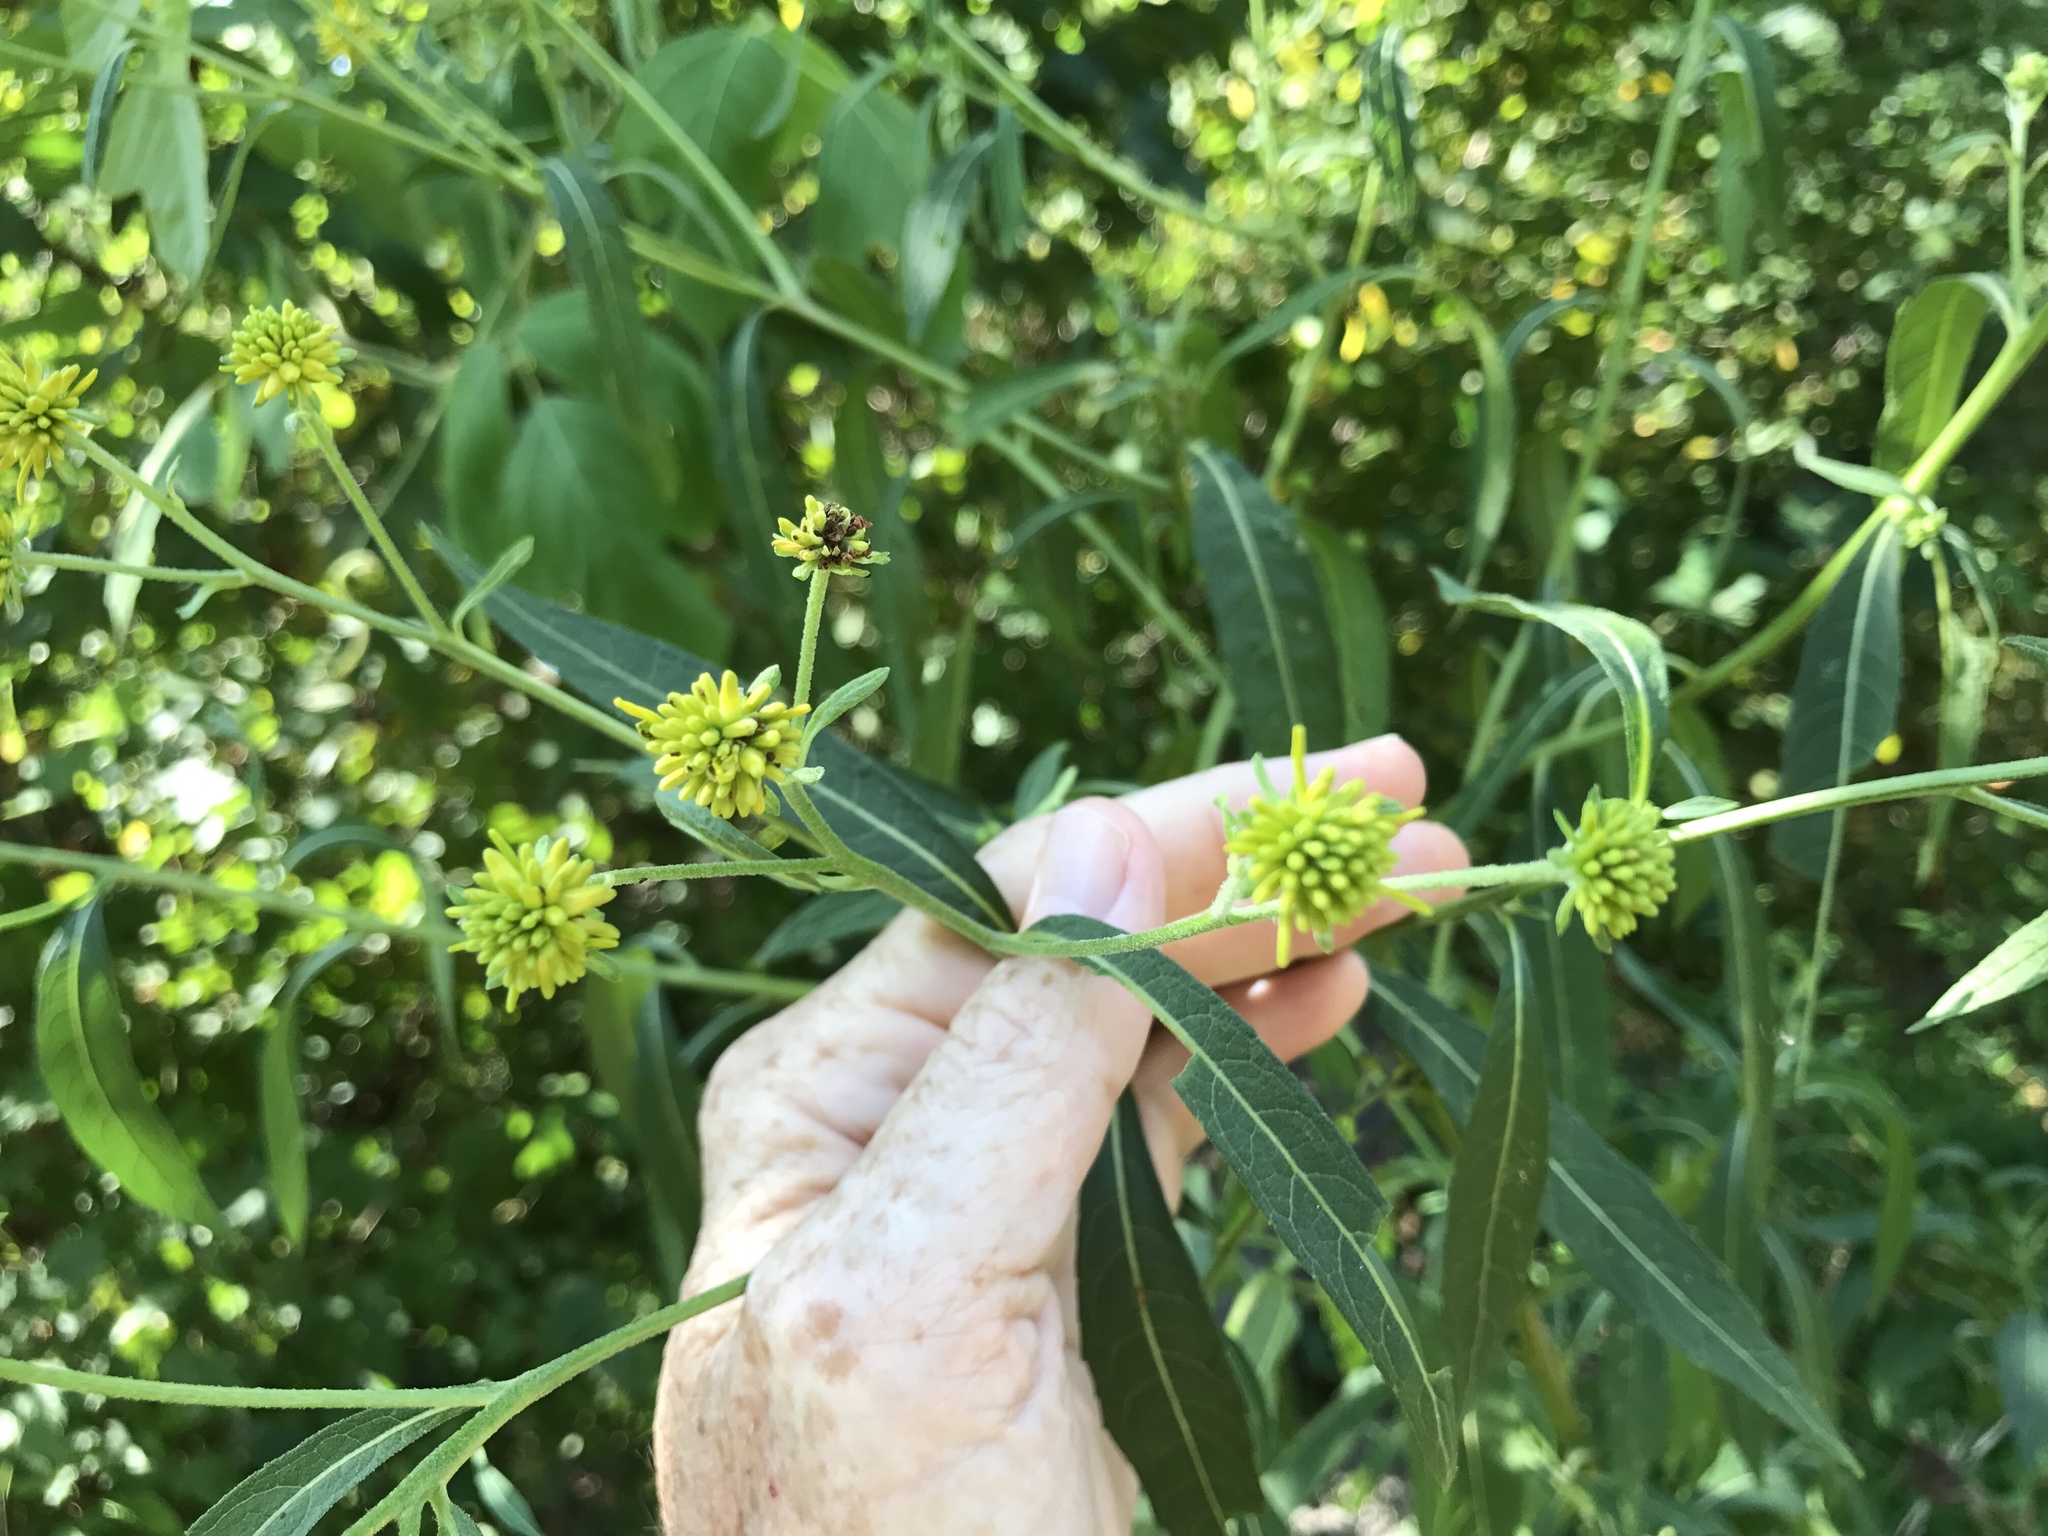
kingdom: Plantae
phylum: Tracheophyta
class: Magnoliopsida
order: Asterales
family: Asteraceae
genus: Verbesina
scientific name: Verbesina alternifolia
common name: Wingstem
